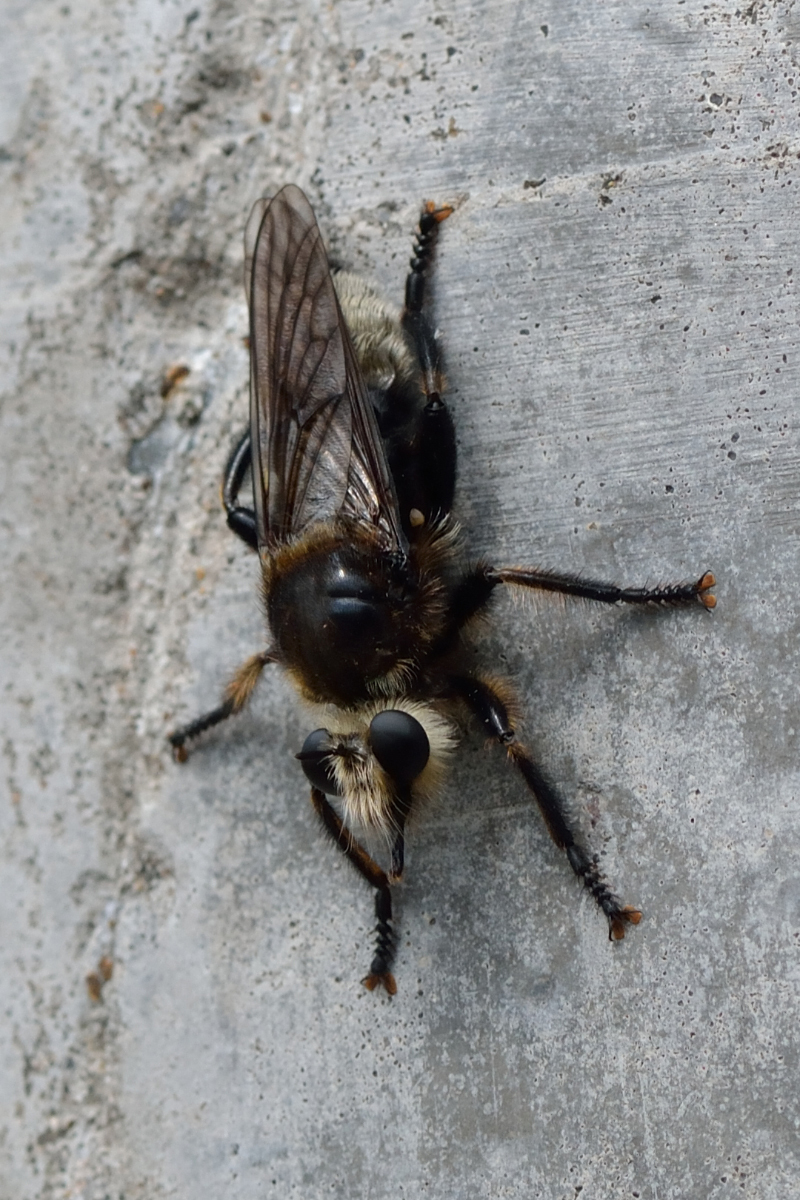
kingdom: Animalia
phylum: Arthropoda
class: Insecta
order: Diptera
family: Asilidae
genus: Laphria
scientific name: Laphria gibbosa
